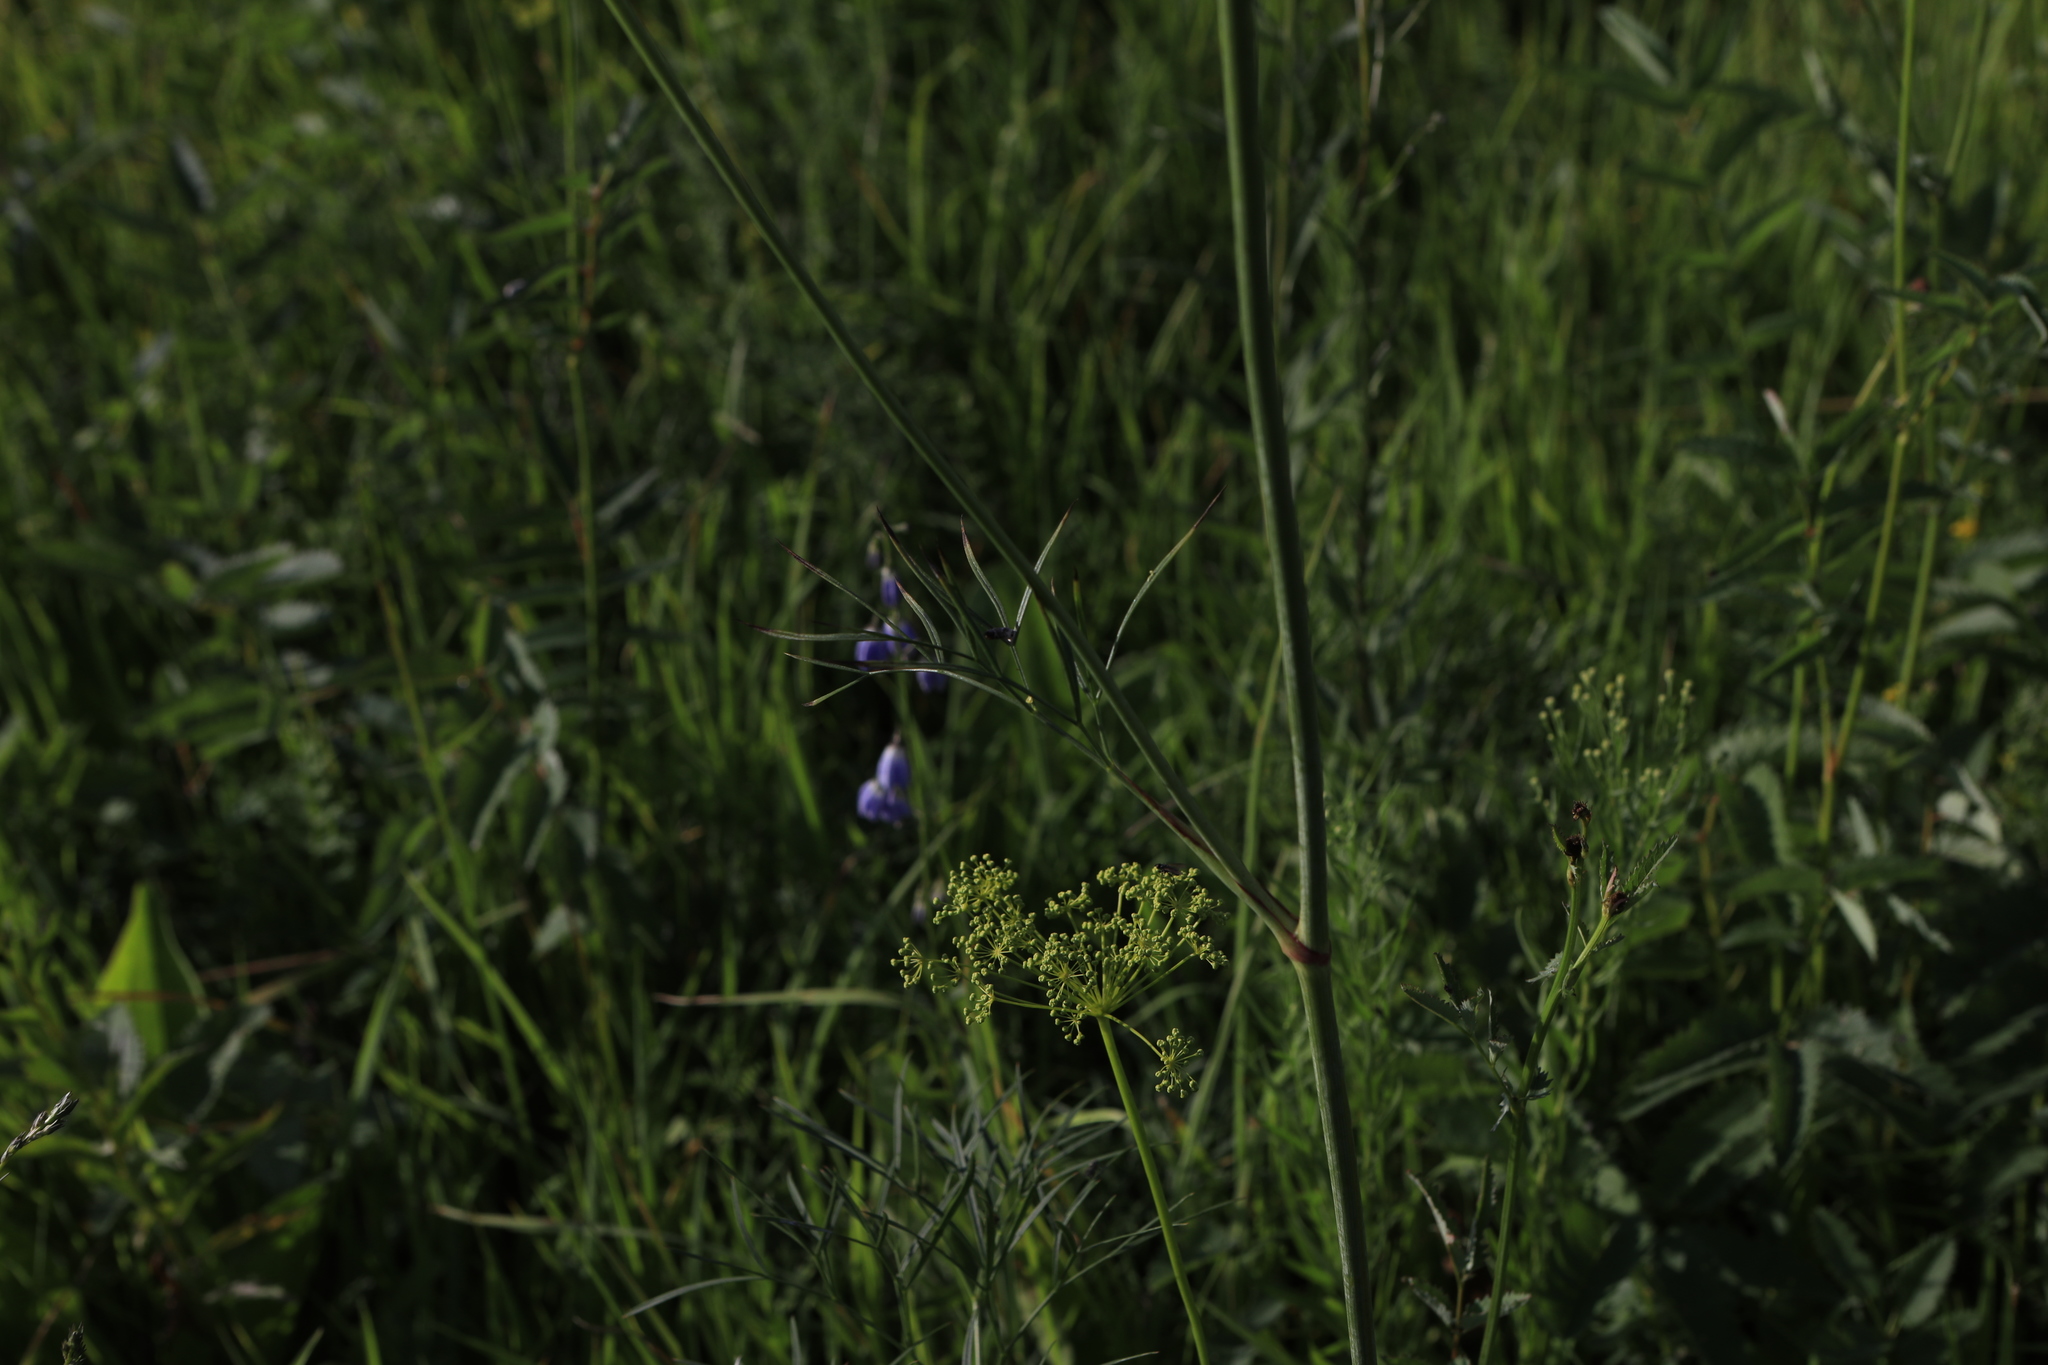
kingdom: Plantae
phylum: Tracheophyta
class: Magnoliopsida
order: Apiales
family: Apiaceae
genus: Peucedanum
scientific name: Peucedanum morisonii
